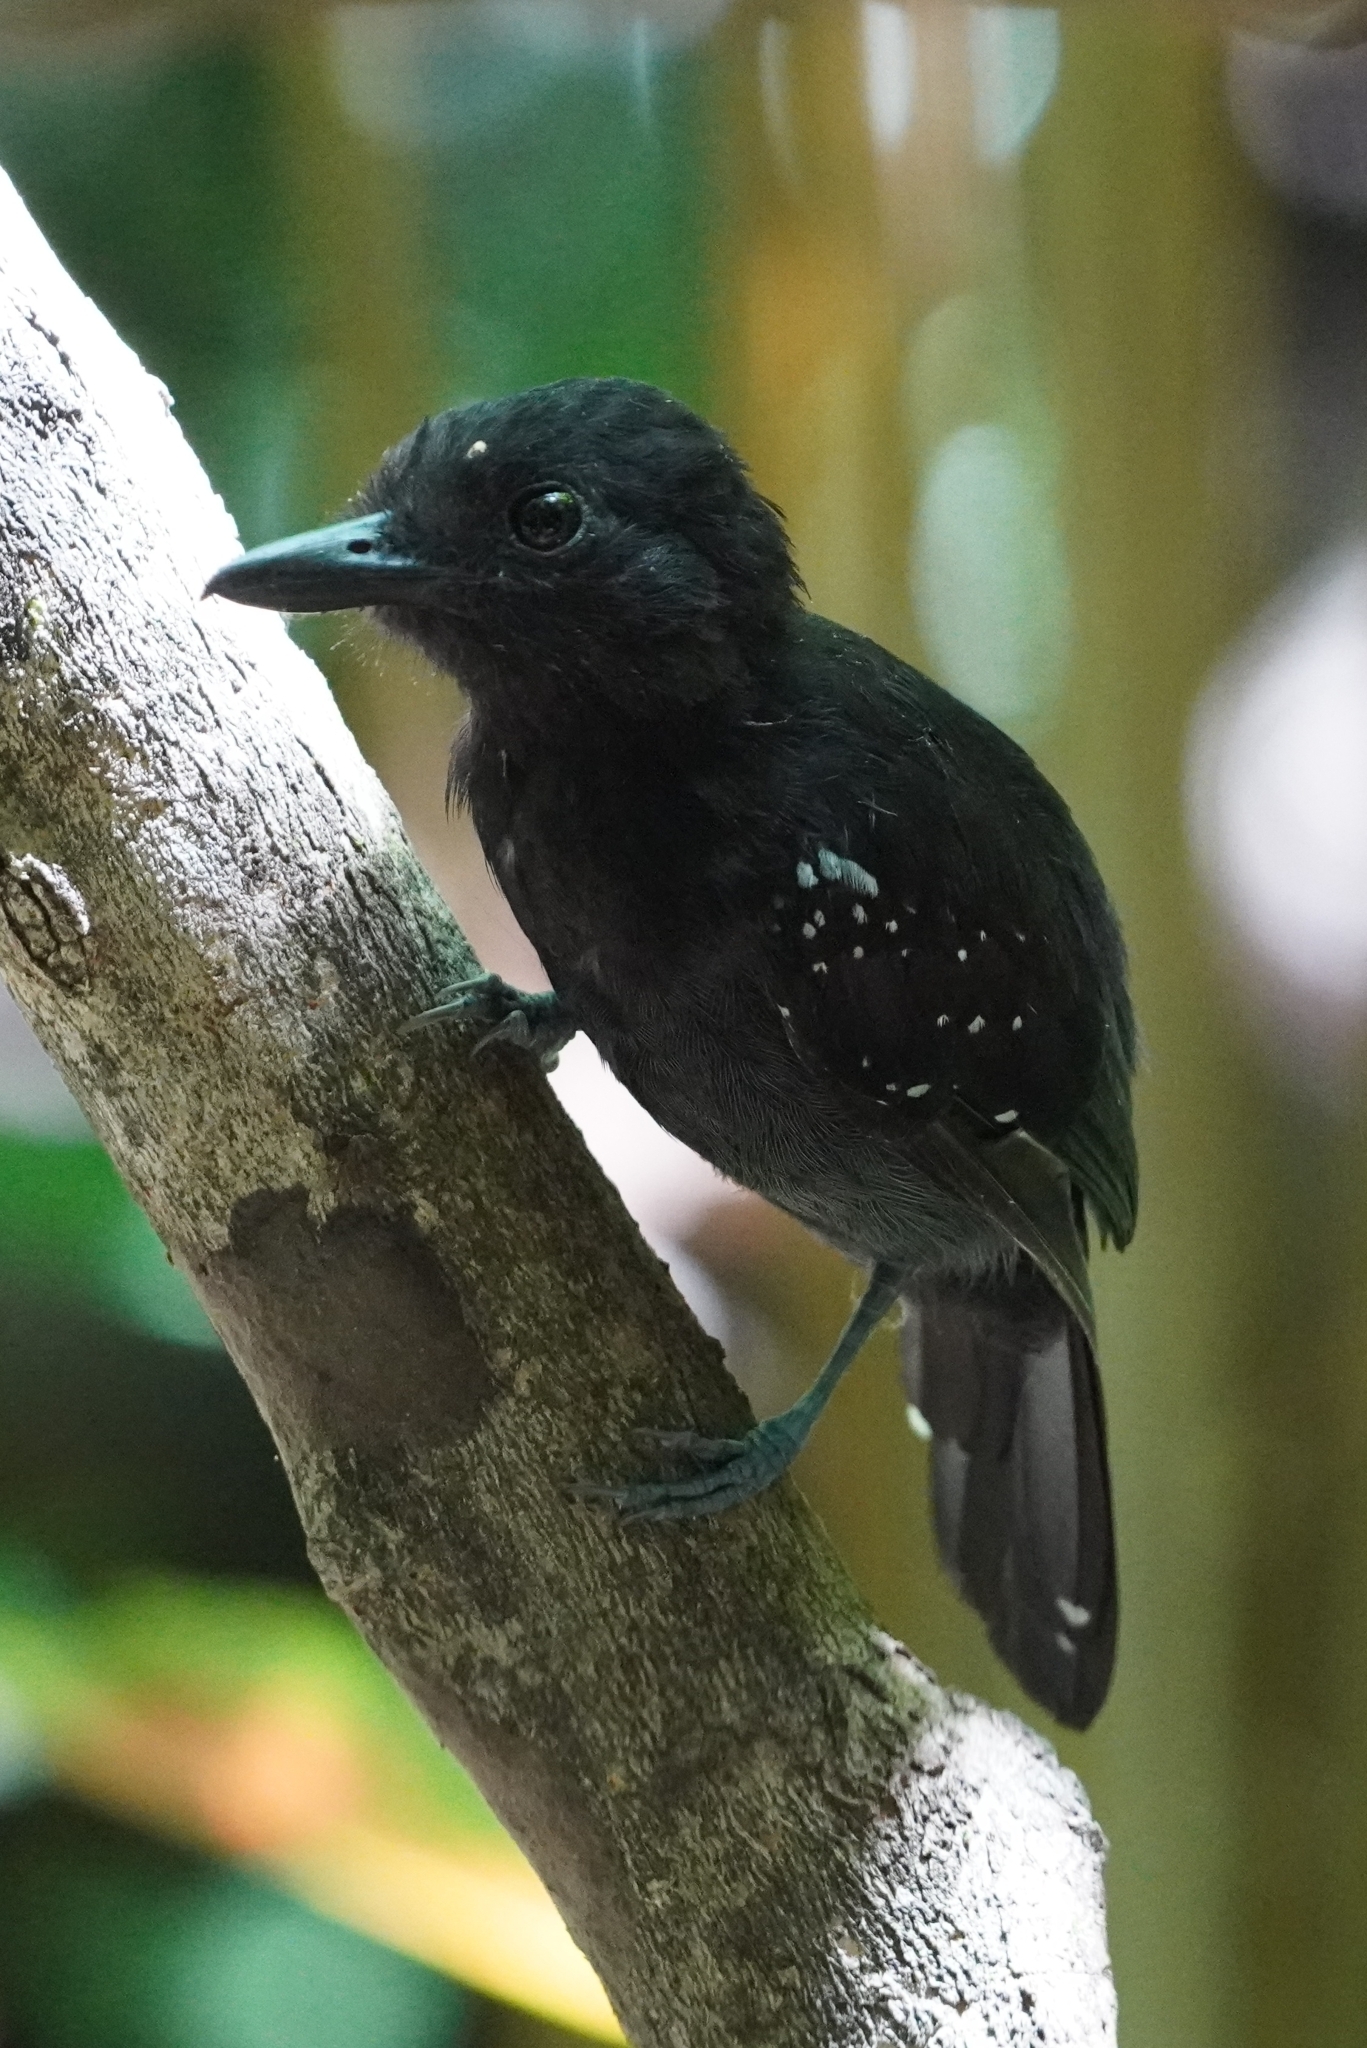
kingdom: Animalia
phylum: Chordata
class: Aves
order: Passeriformes
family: Thamnophilidae
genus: Thamnophilus
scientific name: Thamnophilus bridgesi
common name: Black-hooded antshrike
